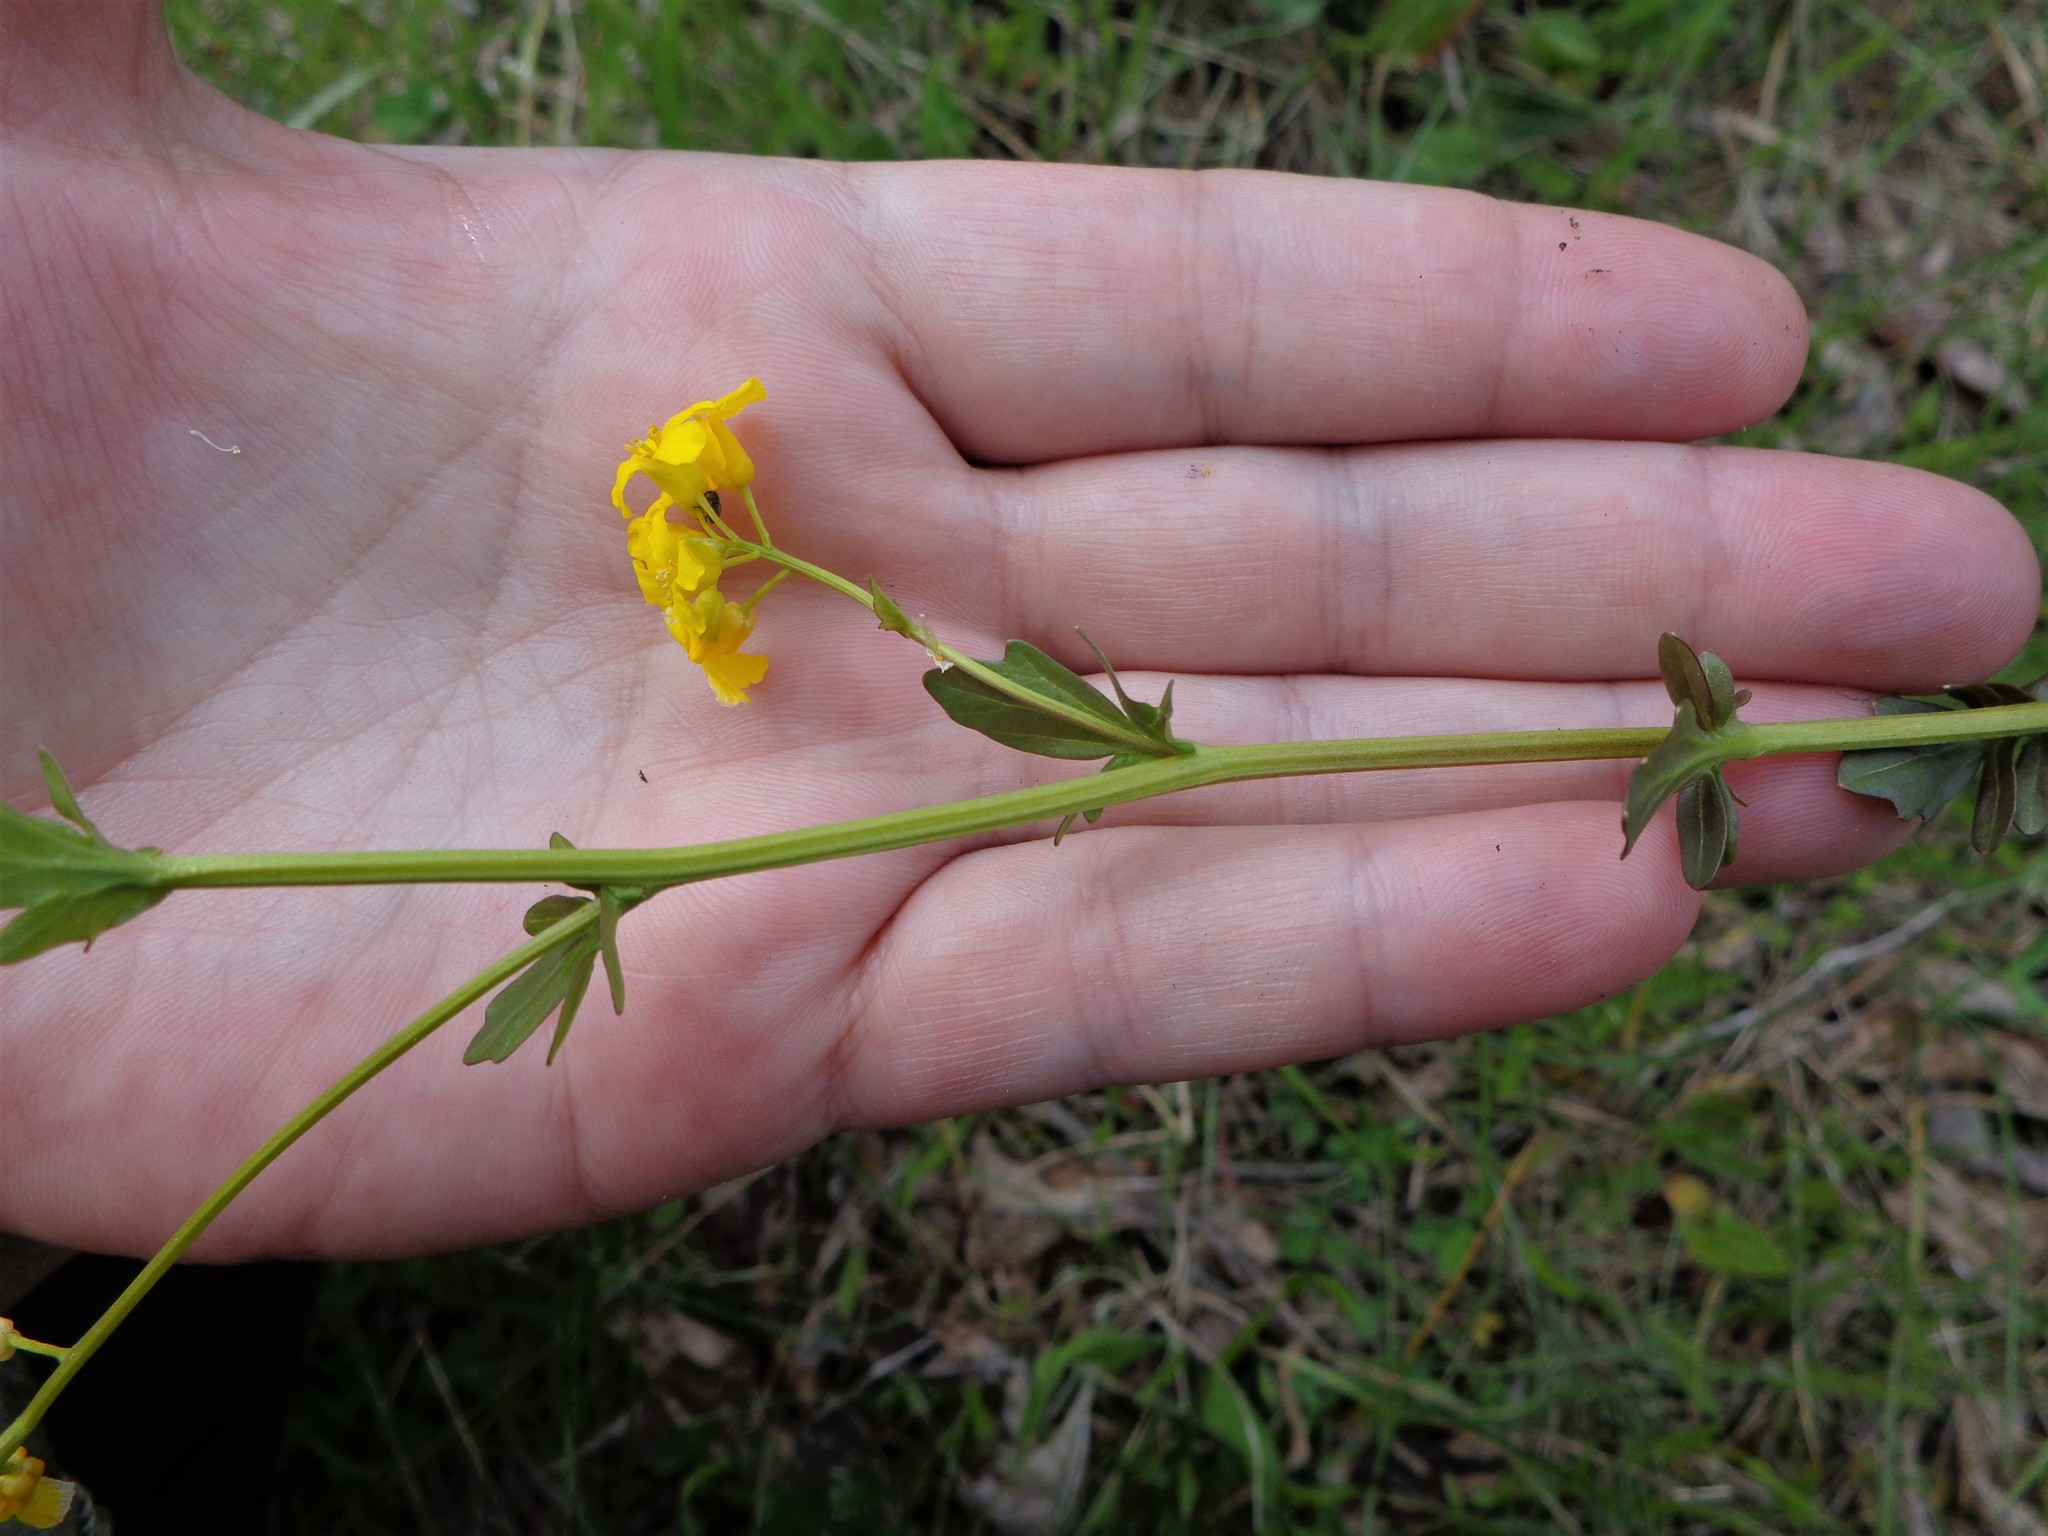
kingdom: Plantae
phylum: Tracheophyta
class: Magnoliopsida
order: Brassicales
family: Brassicaceae
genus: Barbarea
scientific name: Barbarea vulgaris
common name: Cressy-greens
